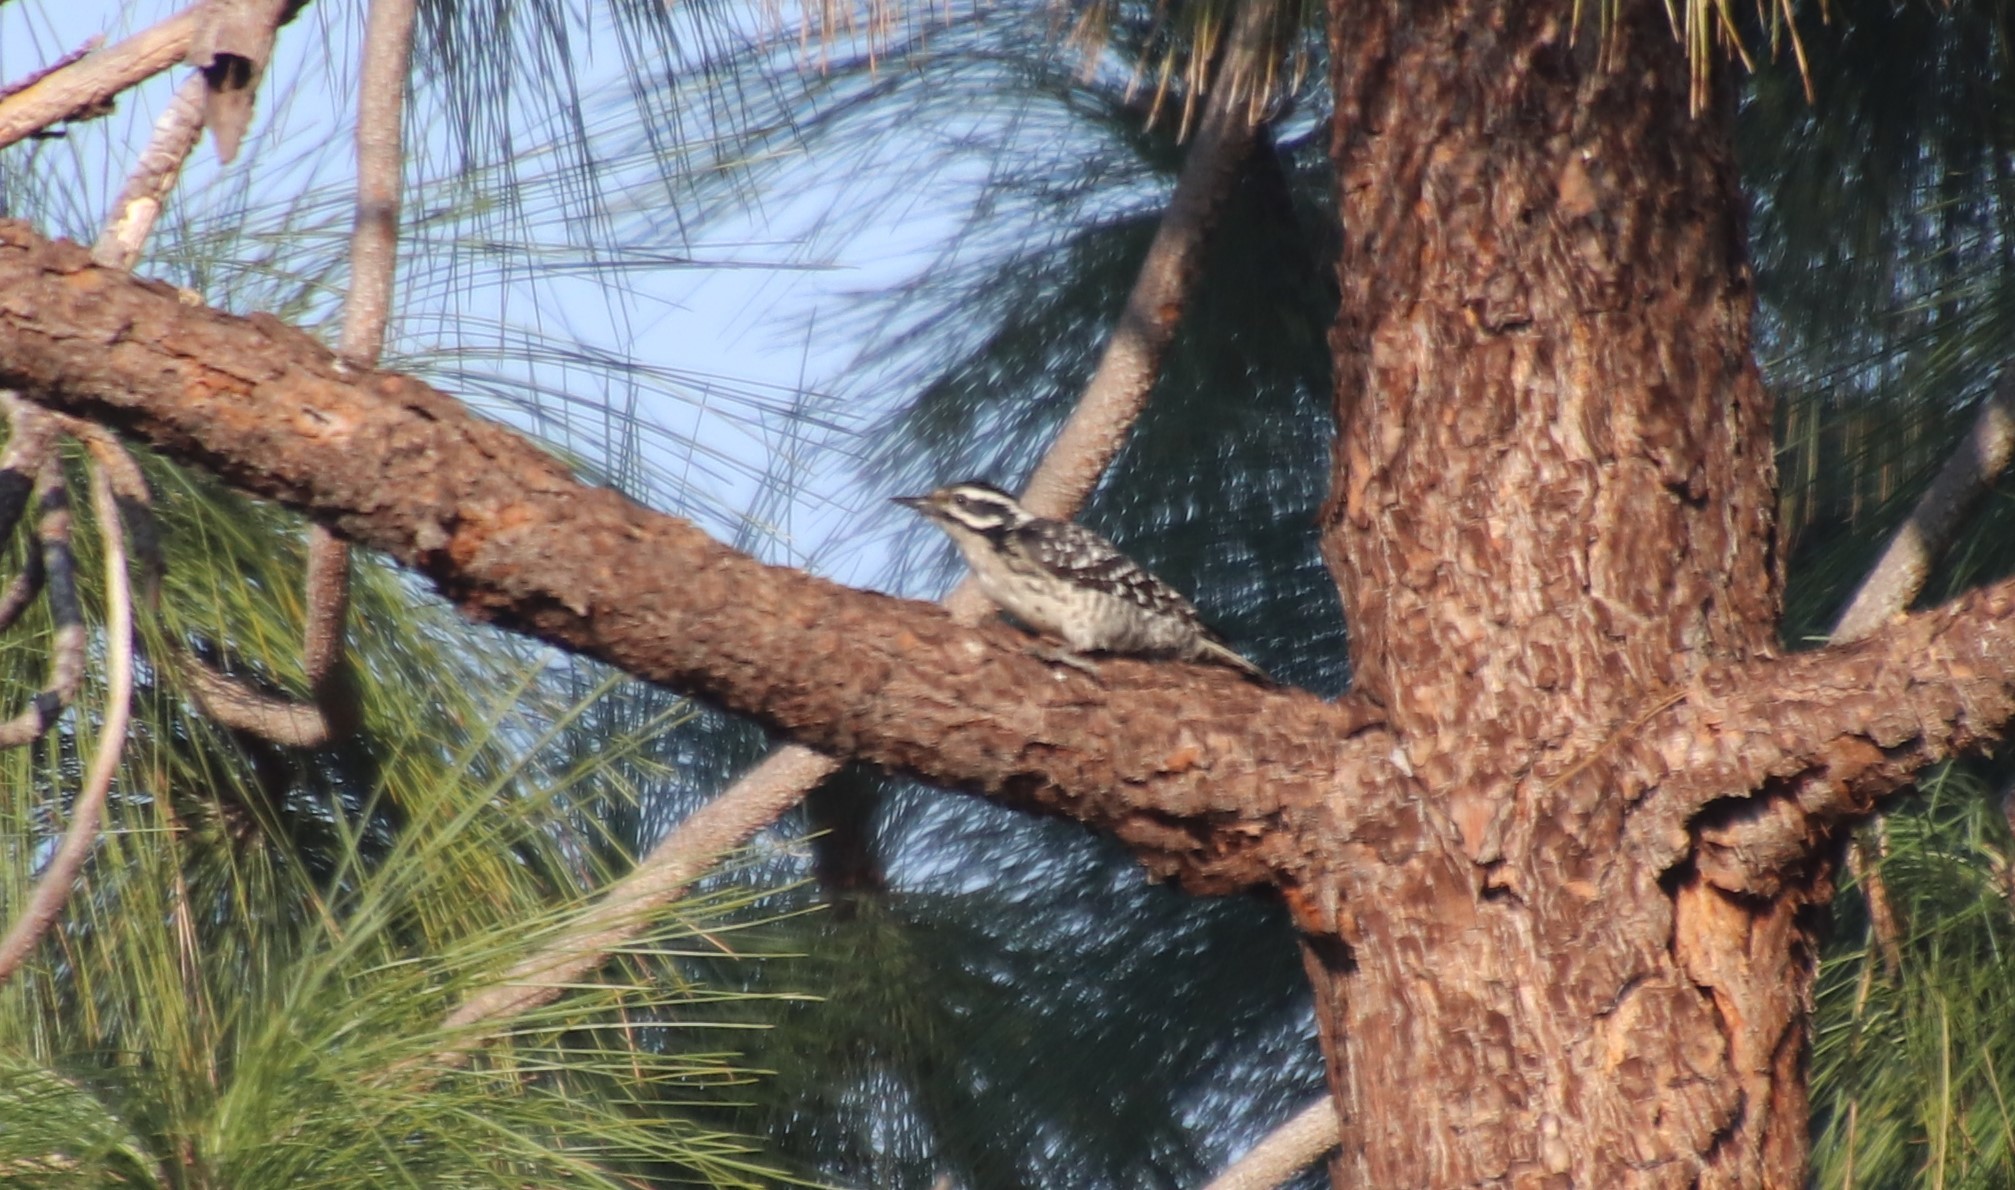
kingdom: Animalia
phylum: Chordata
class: Aves
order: Piciformes
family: Picidae
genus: Dryobates
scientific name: Dryobates nuttallii
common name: Nuttall's woodpecker
